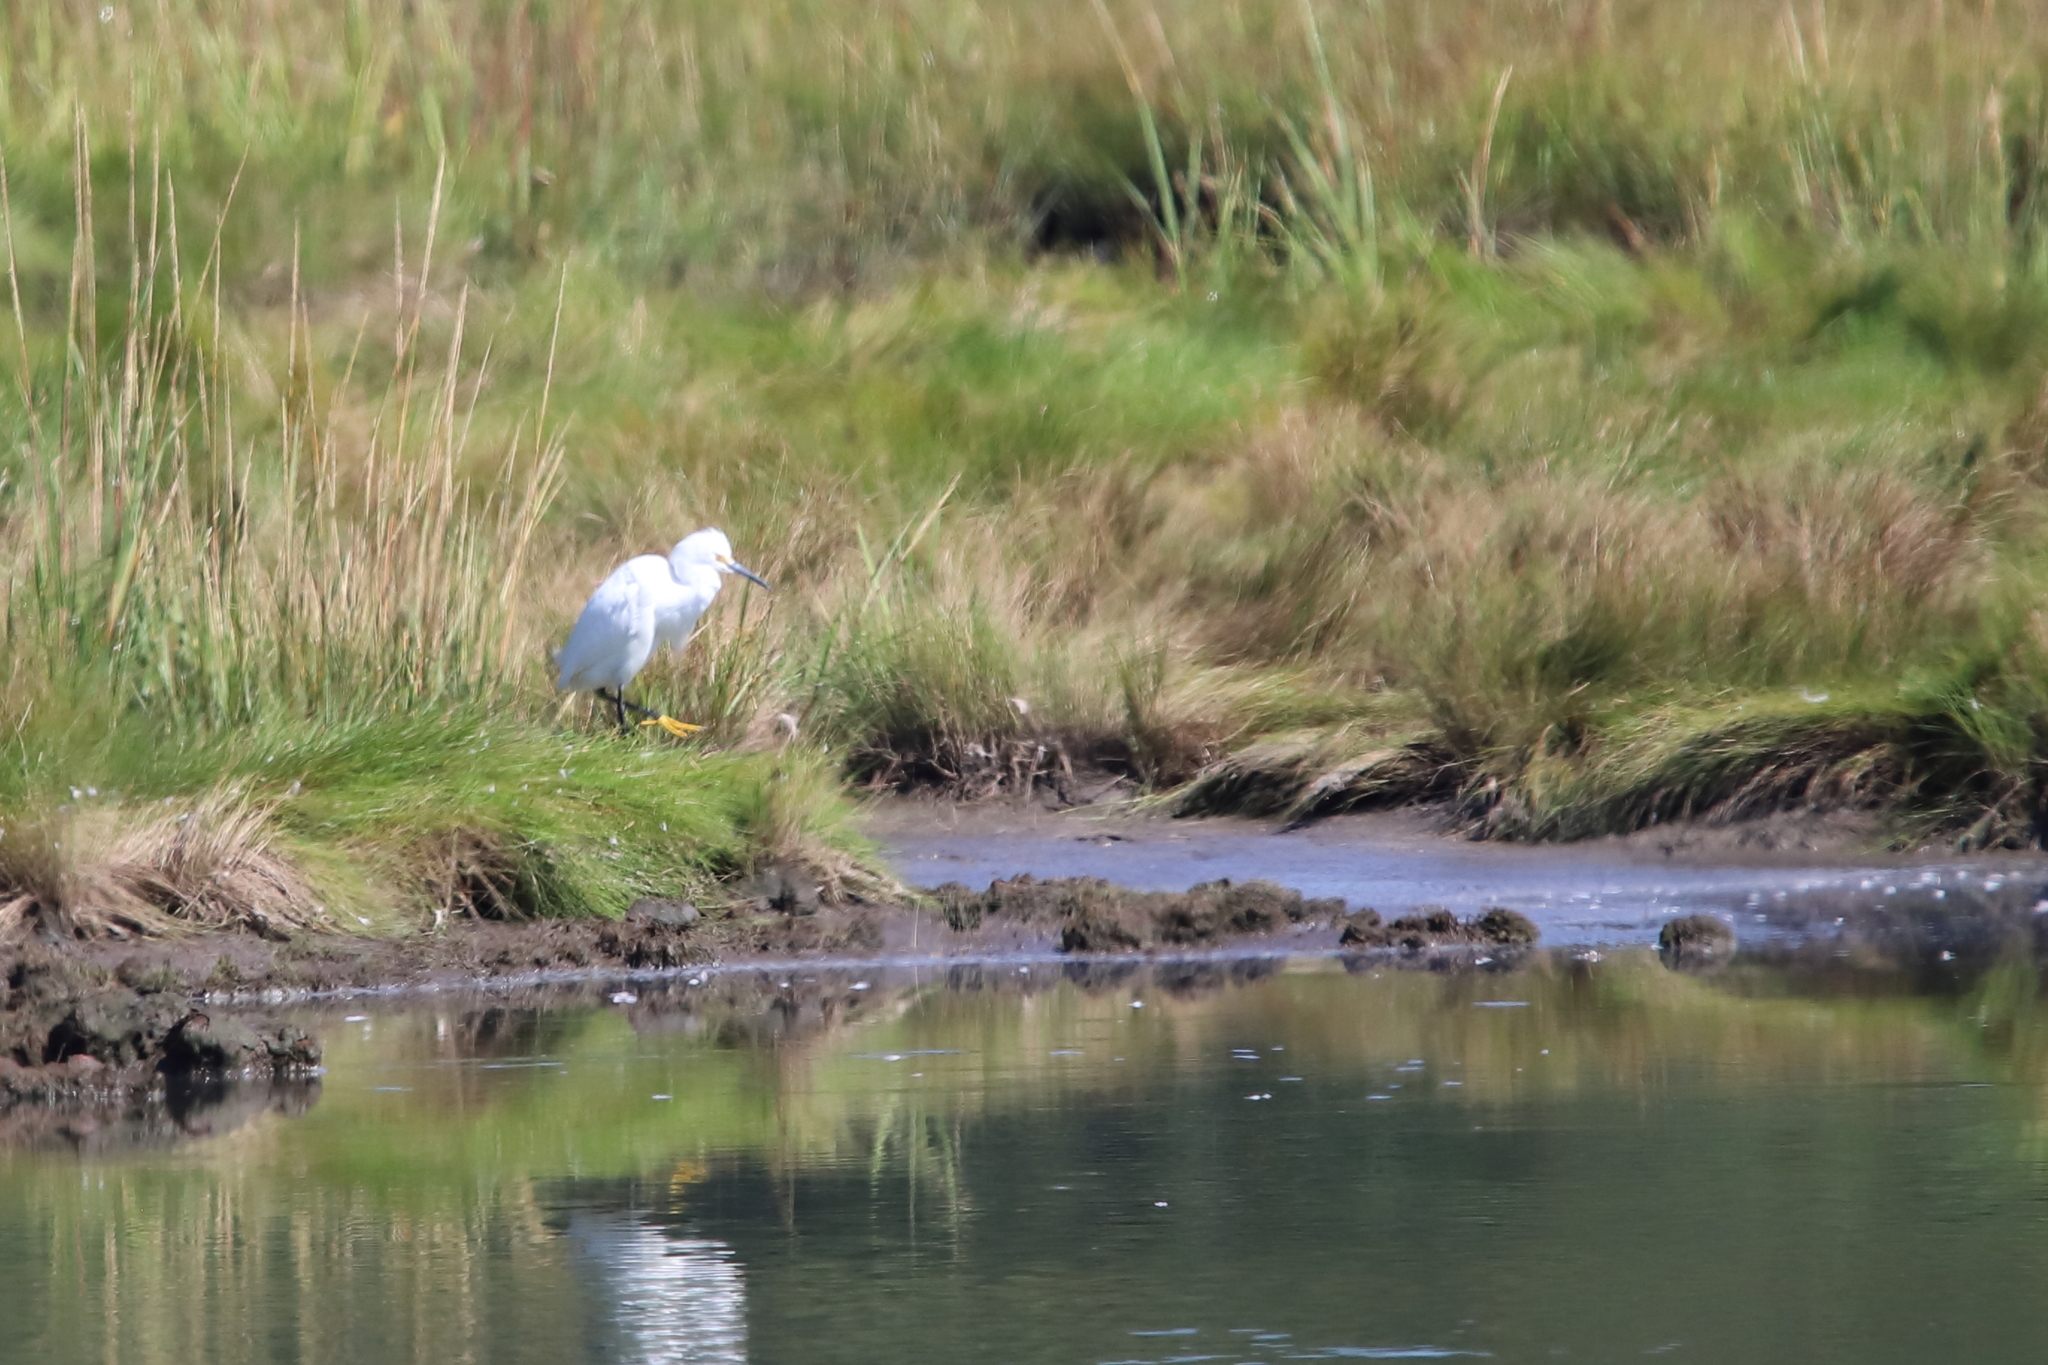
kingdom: Animalia
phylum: Chordata
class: Aves
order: Pelecaniformes
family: Ardeidae
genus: Egretta
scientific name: Egretta thula
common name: Snowy egret
